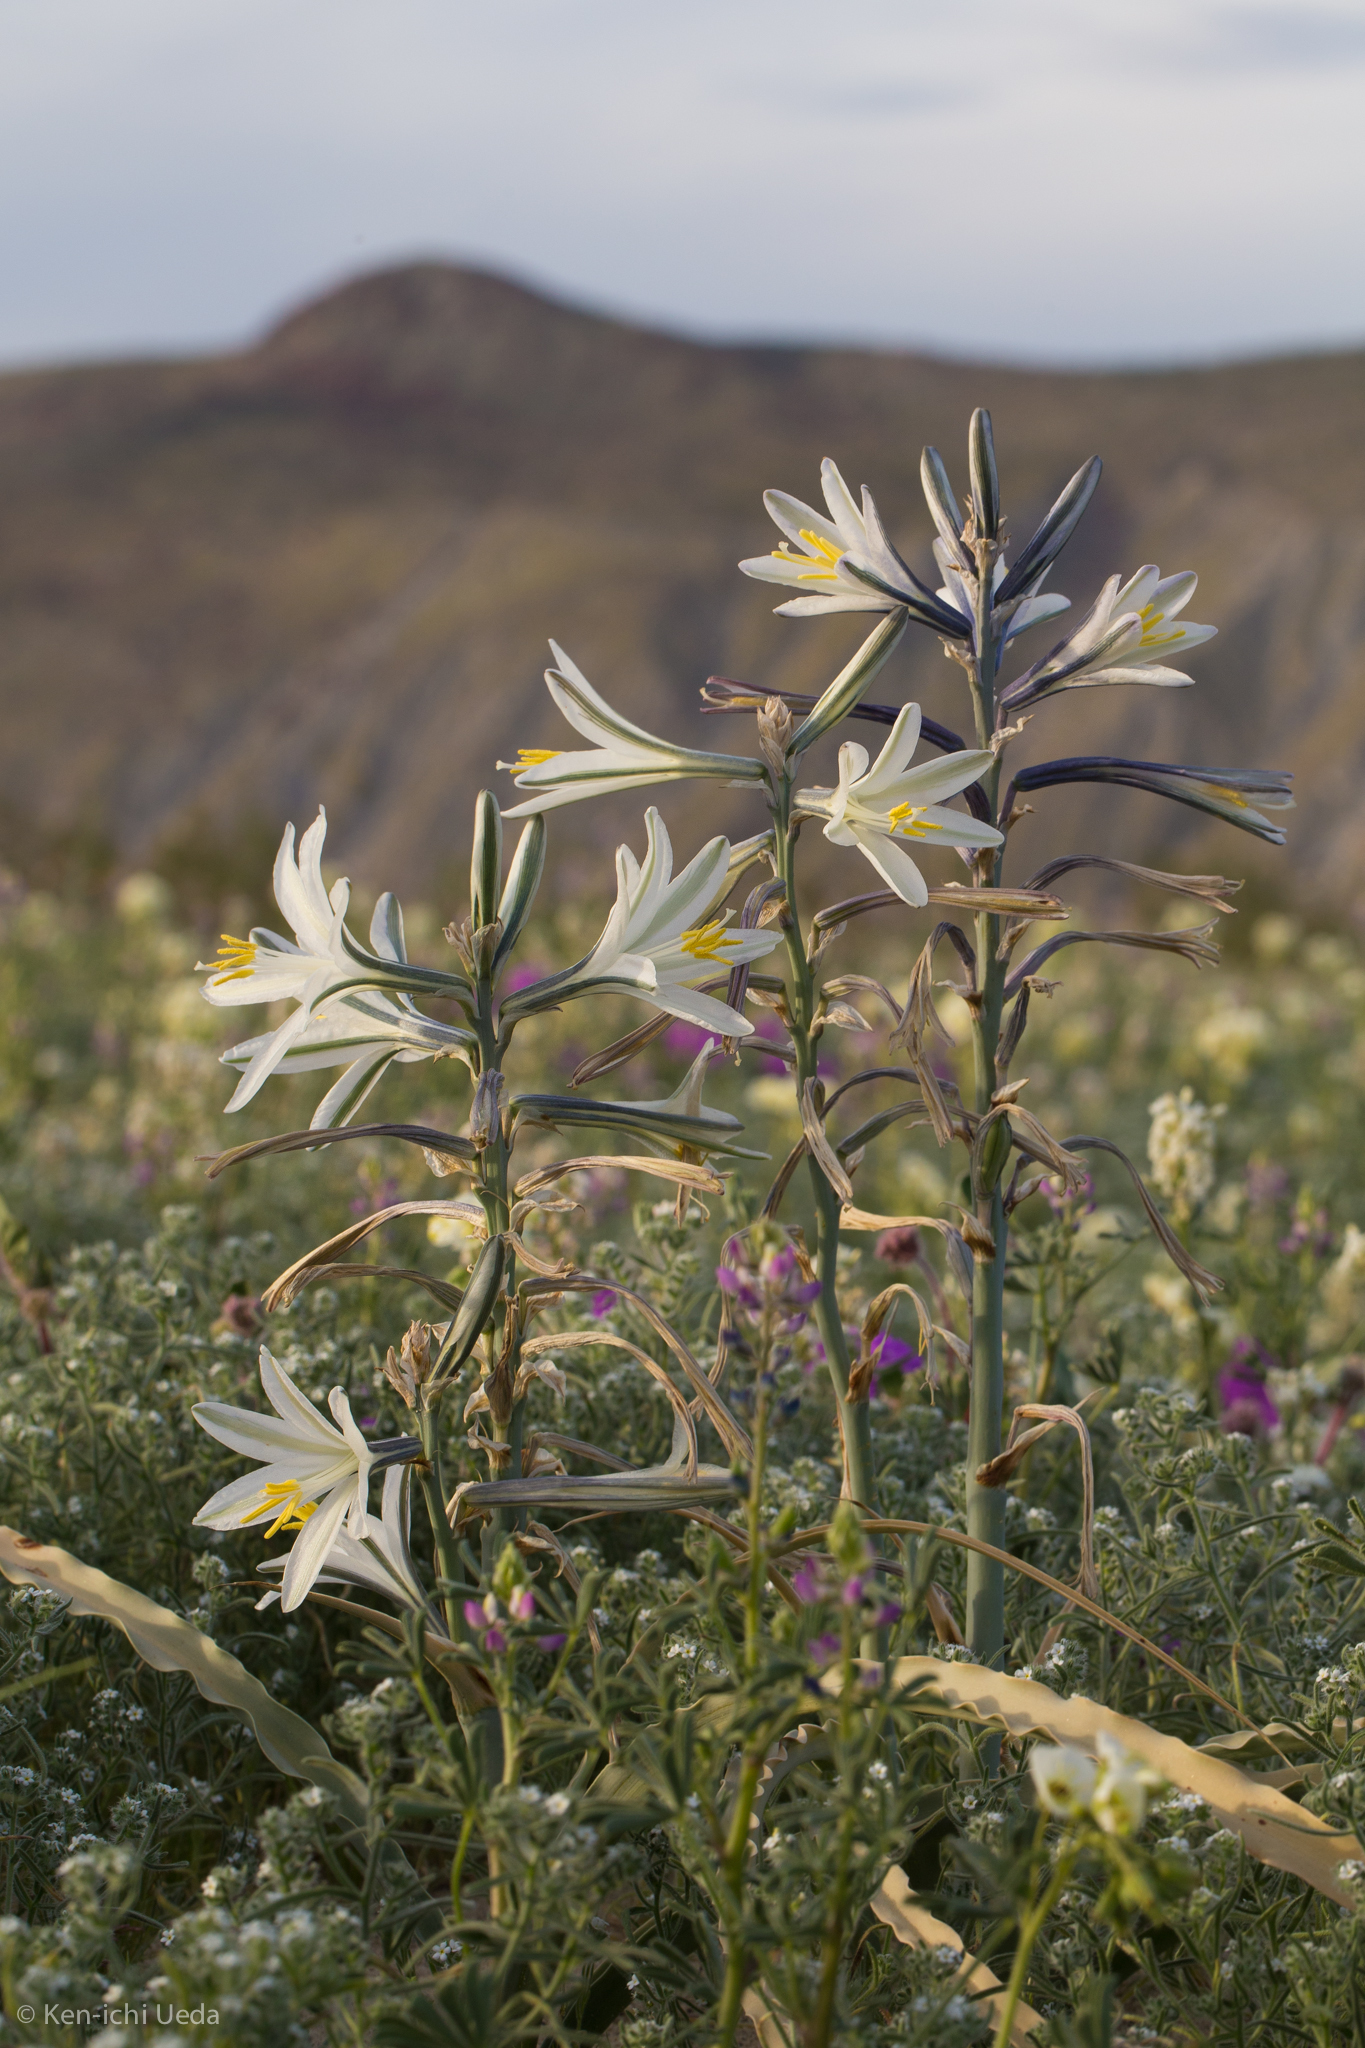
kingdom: Plantae
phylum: Tracheophyta
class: Liliopsida
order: Asparagales
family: Asparagaceae
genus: Hesperocallis
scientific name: Hesperocallis undulata
